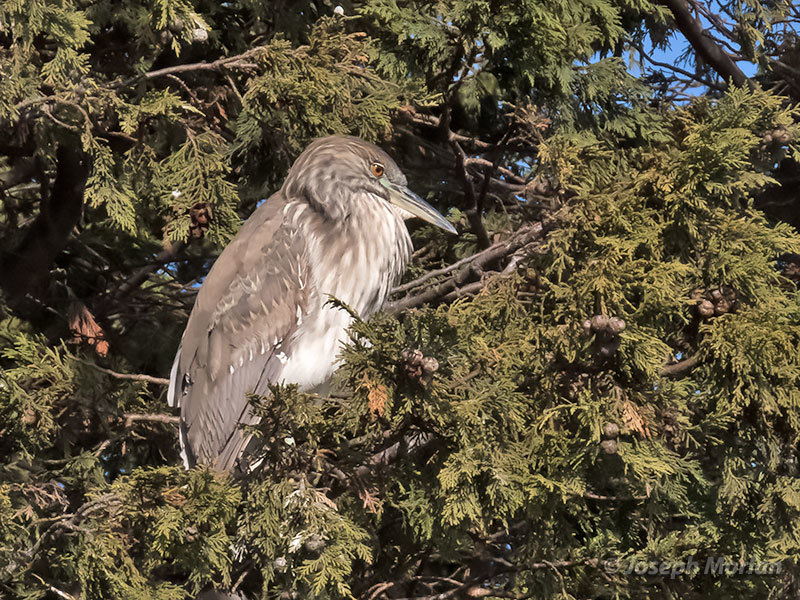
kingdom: Animalia
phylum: Chordata
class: Aves
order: Pelecaniformes
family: Ardeidae
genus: Nycticorax
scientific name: Nycticorax nycticorax
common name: Black-crowned night heron
